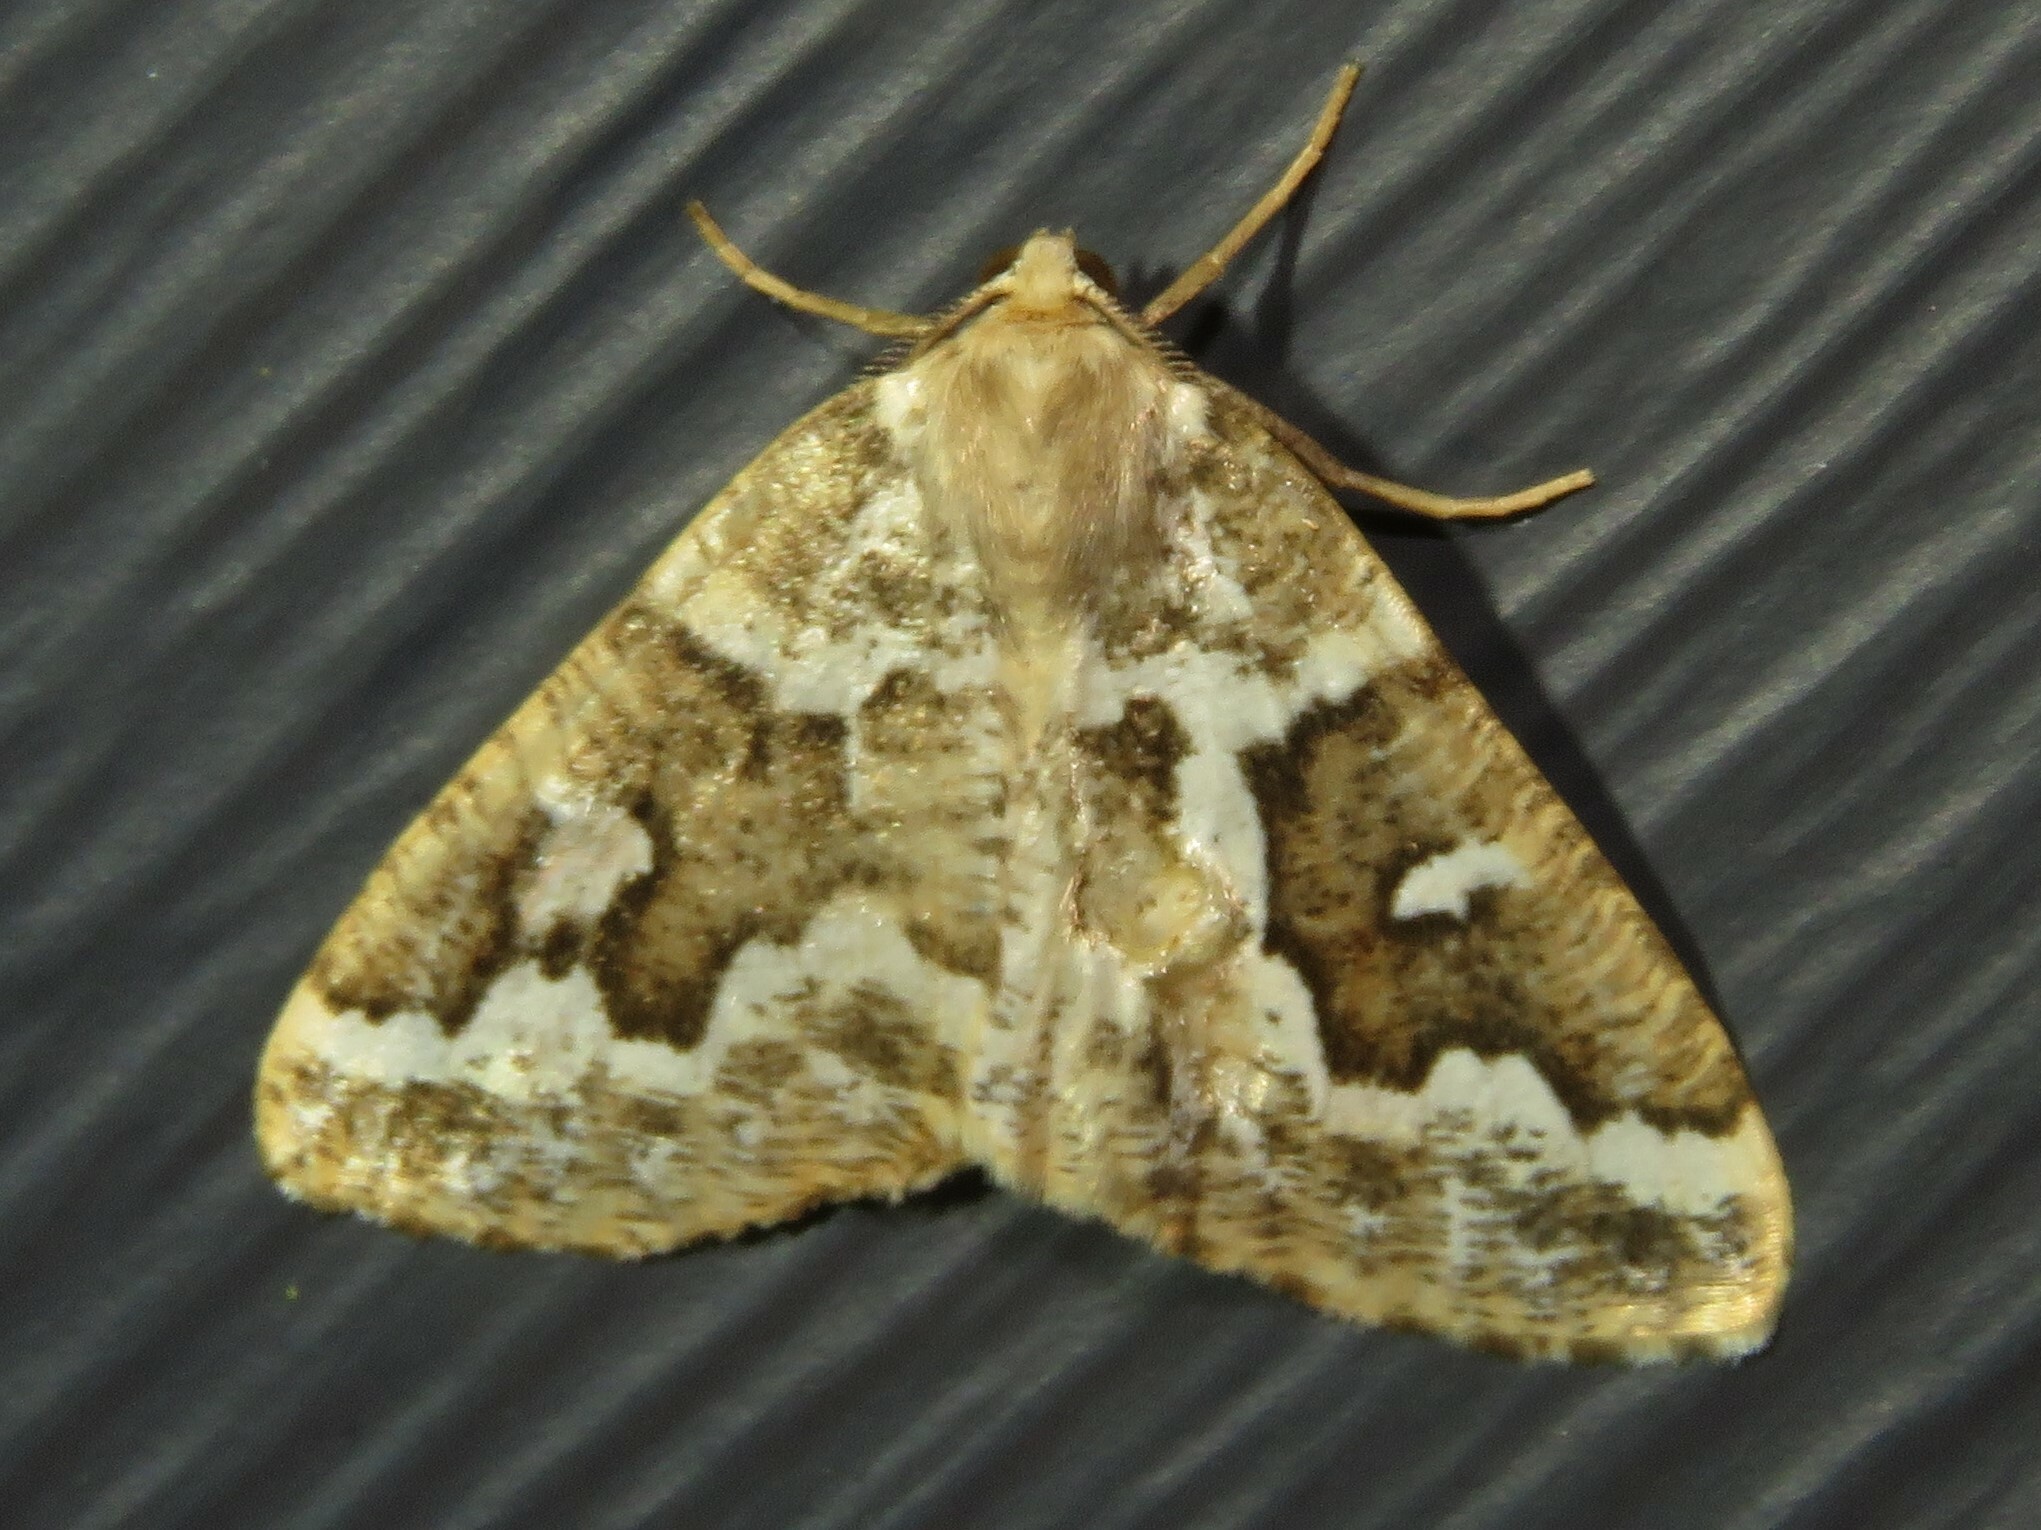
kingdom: Animalia
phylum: Arthropoda
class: Insecta
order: Lepidoptera
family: Geometridae
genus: Caripeta
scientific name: Caripeta divisata
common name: Gray spruce looper
